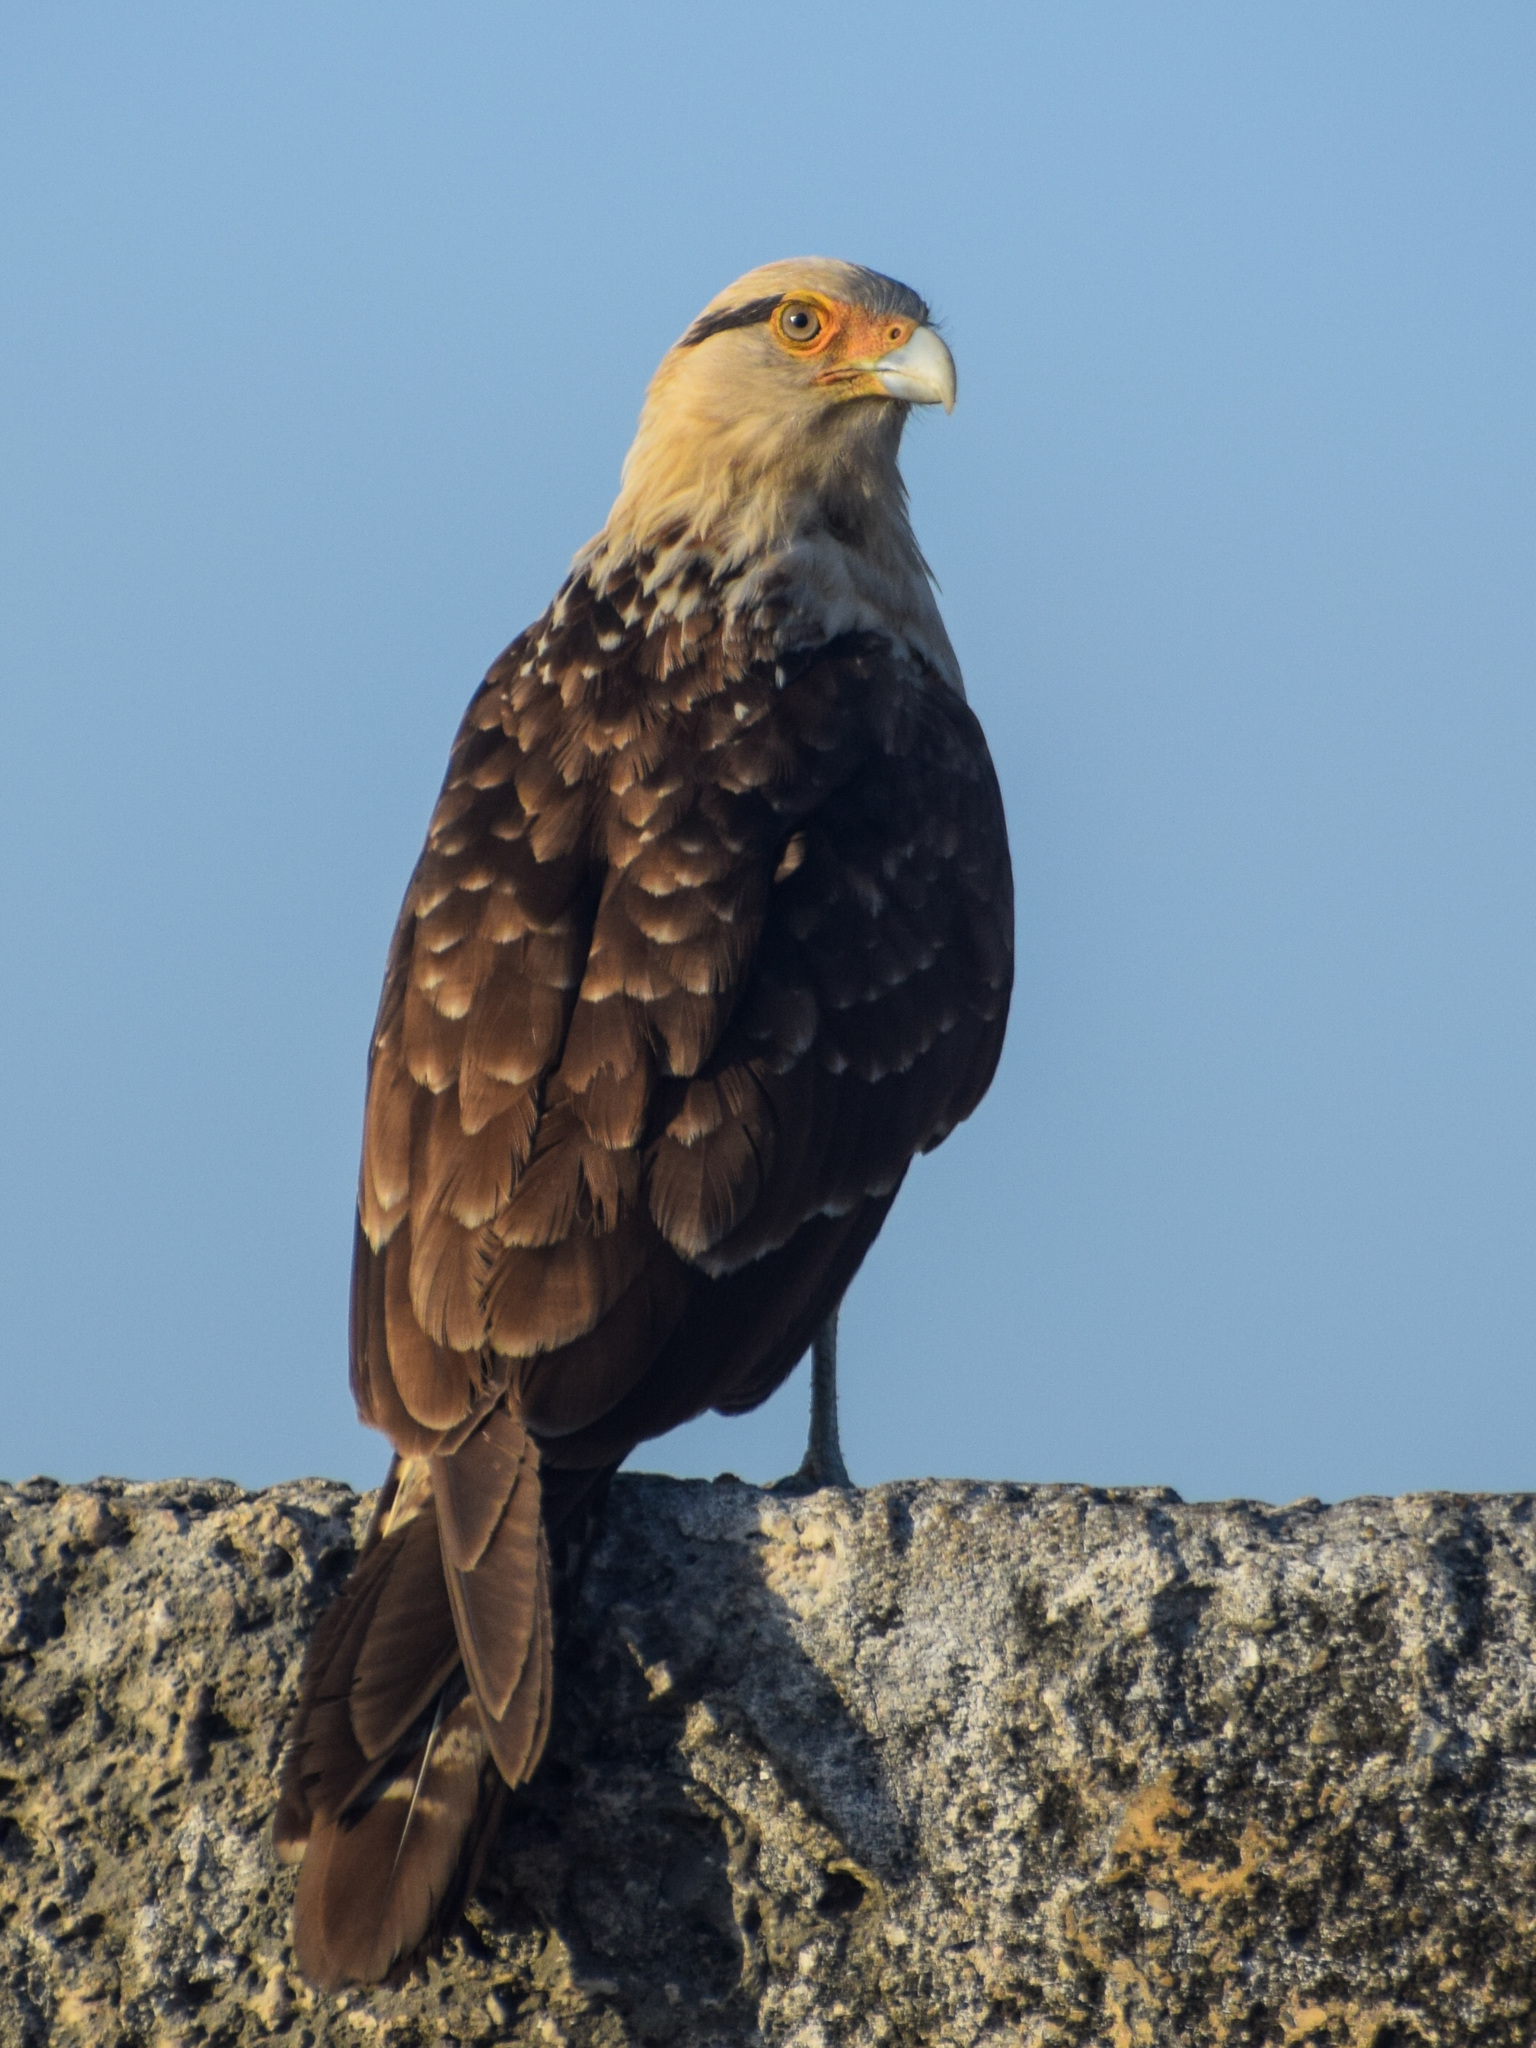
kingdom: Animalia
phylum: Chordata
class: Aves
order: Falconiformes
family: Falconidae
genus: Daptrius
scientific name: Daptrius
